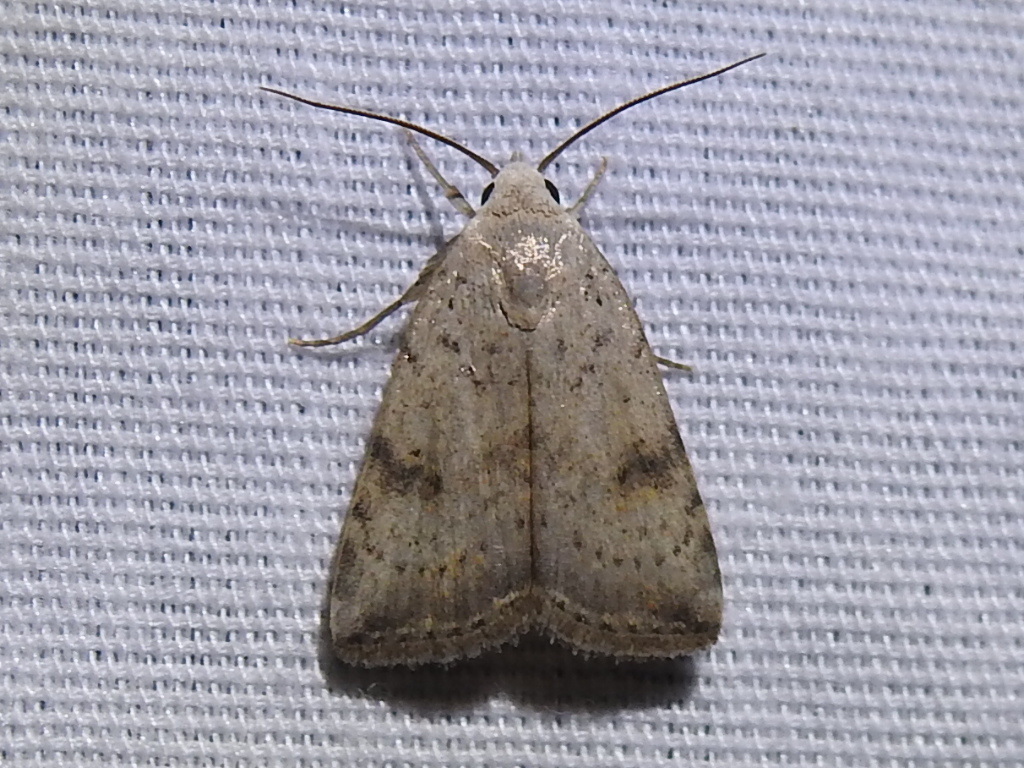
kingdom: Animalia
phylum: Arthropoda
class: Insecta
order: Lepidoptera
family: Noctuidae
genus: Micrathetis
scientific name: Micrathetis triplex
